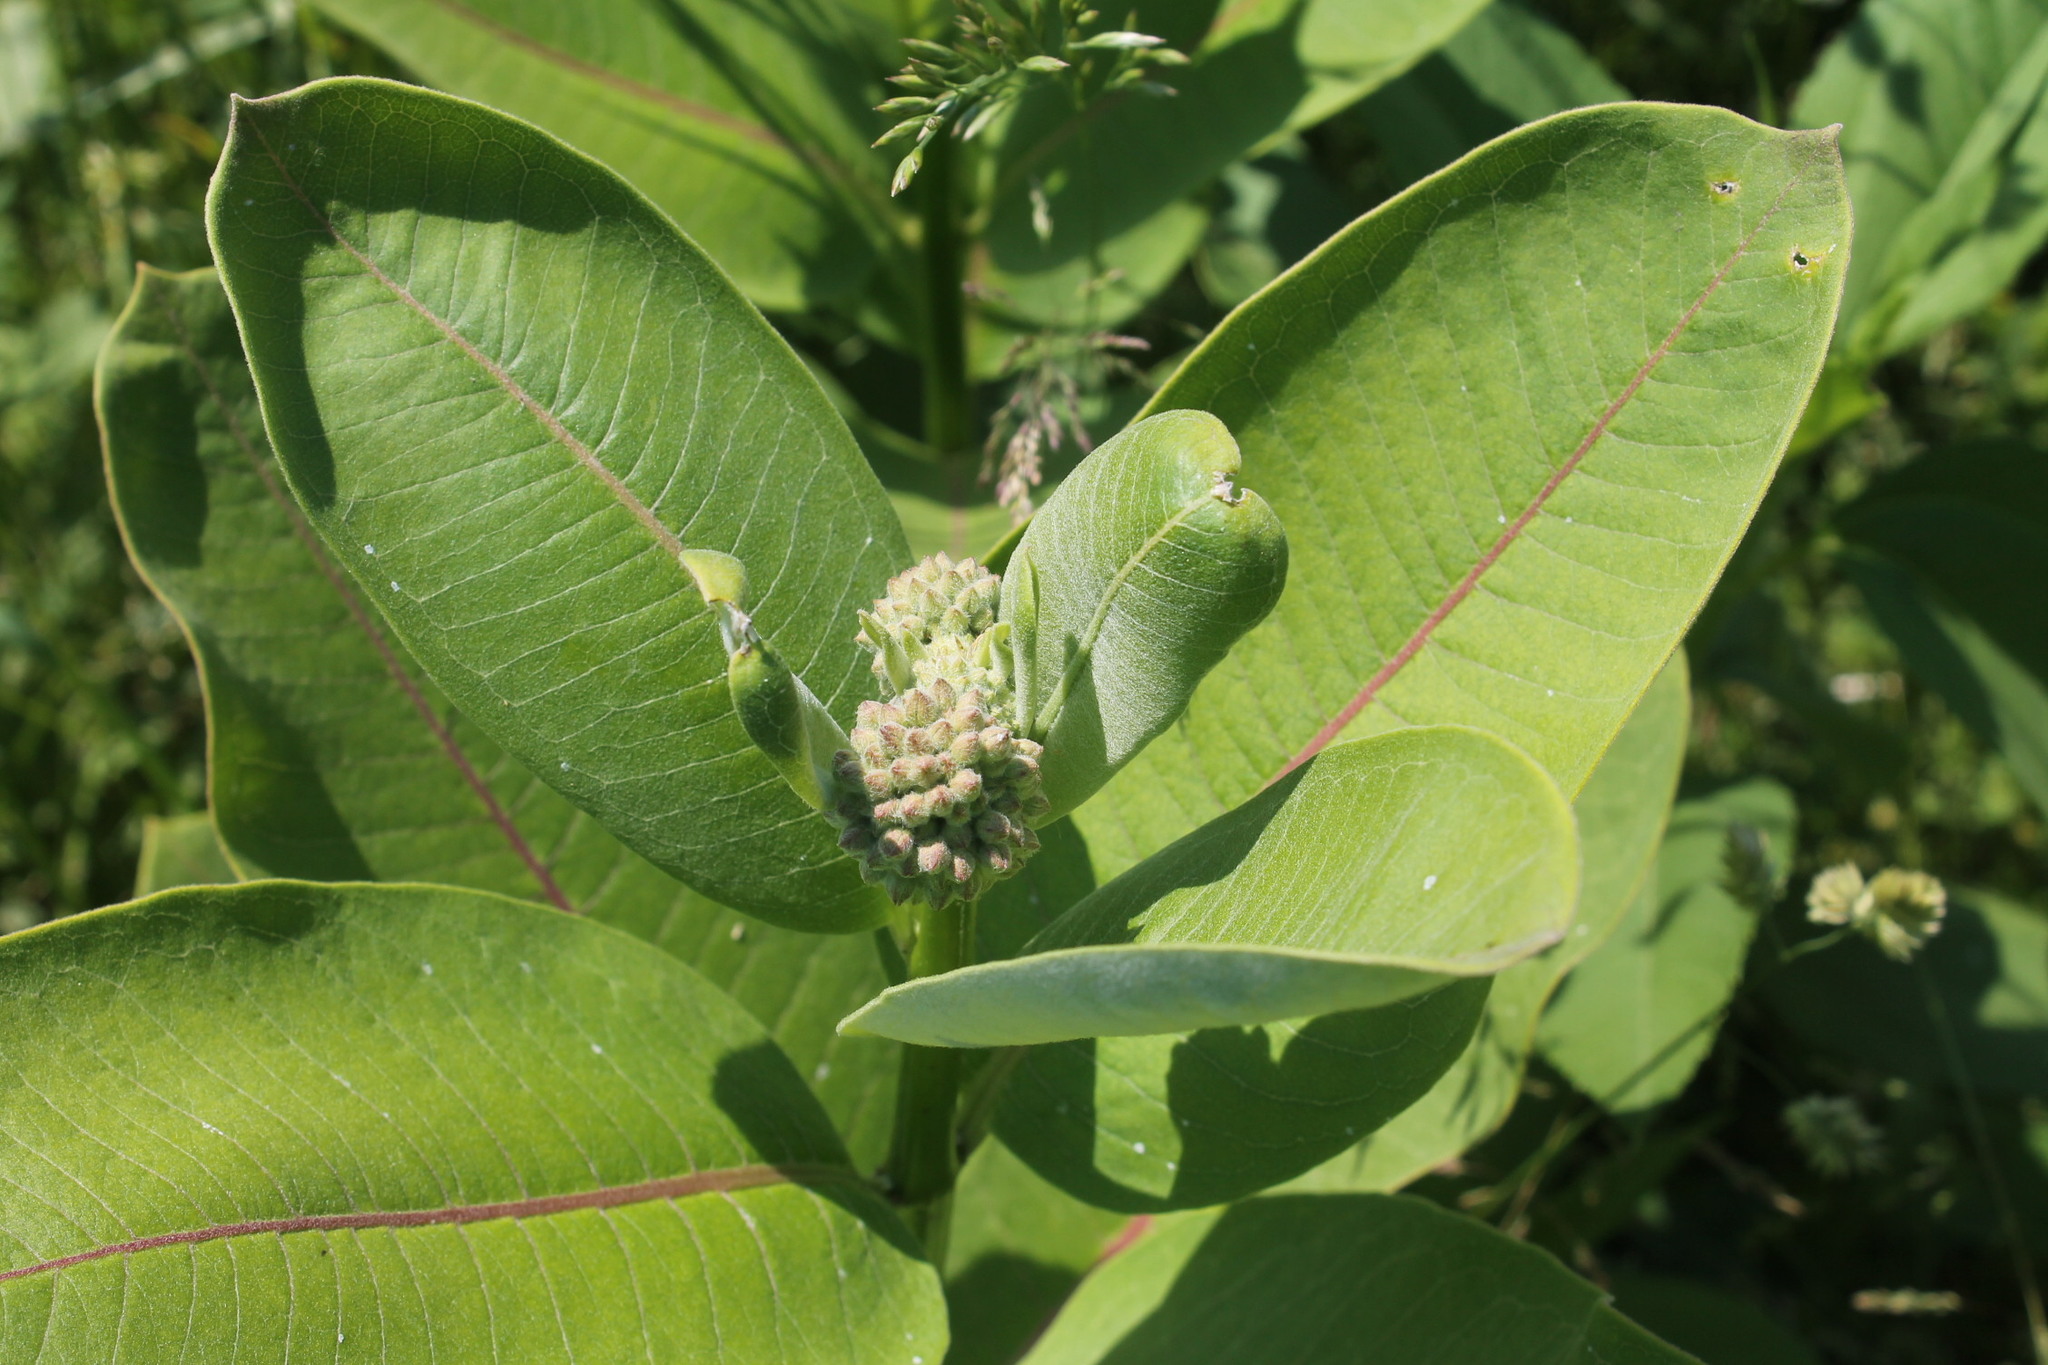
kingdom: Plantae
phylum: Tracheophyta
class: Magnoliopsida
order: Gentianales
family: Apocynaceae
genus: Asclepias
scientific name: Asclepias syriaca
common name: Common milkweed
